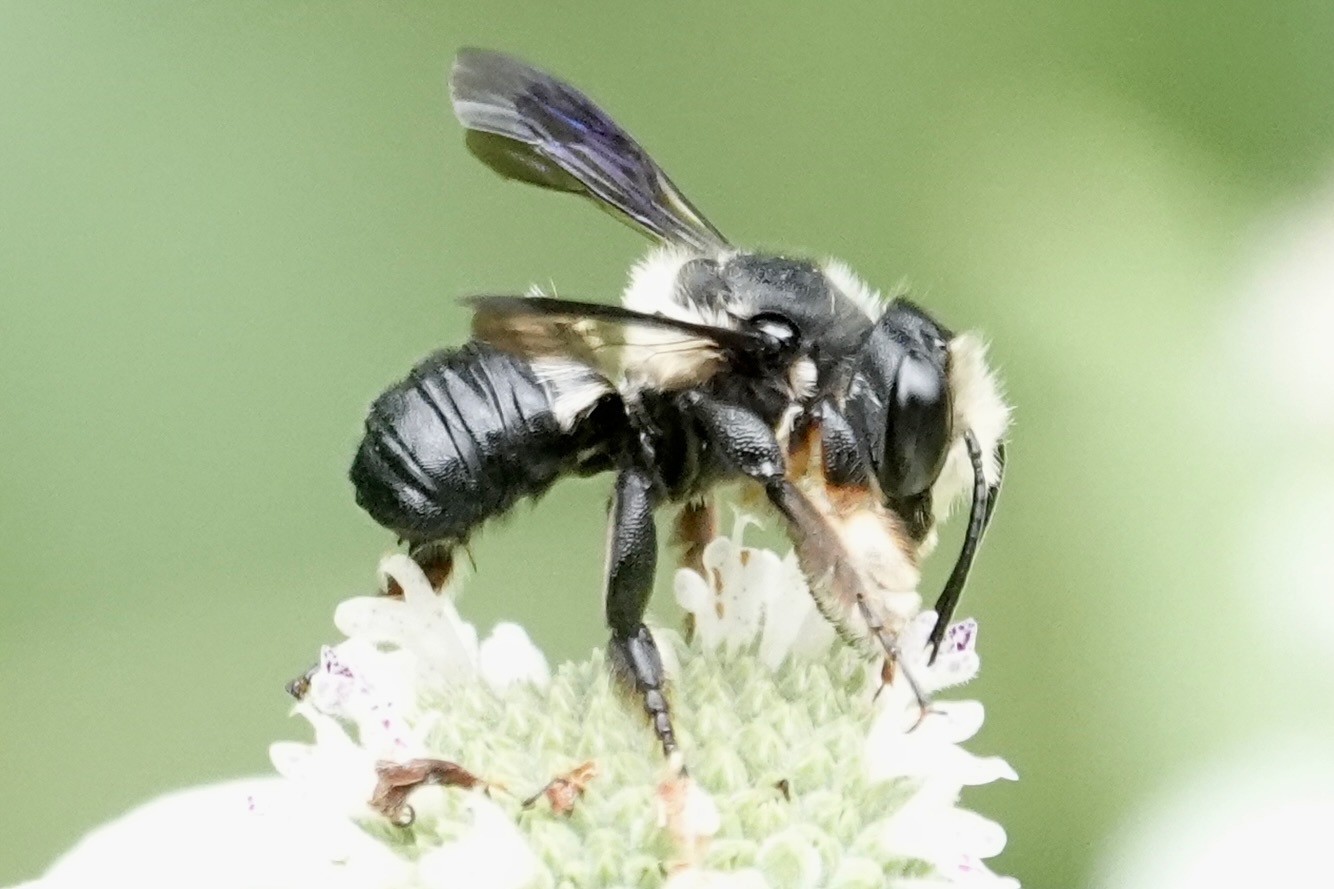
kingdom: Animalia
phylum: Arthropoda
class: Insecta
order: Hymenoptera
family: Megachilidae
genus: Megachile
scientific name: Megachile xylocopoides
